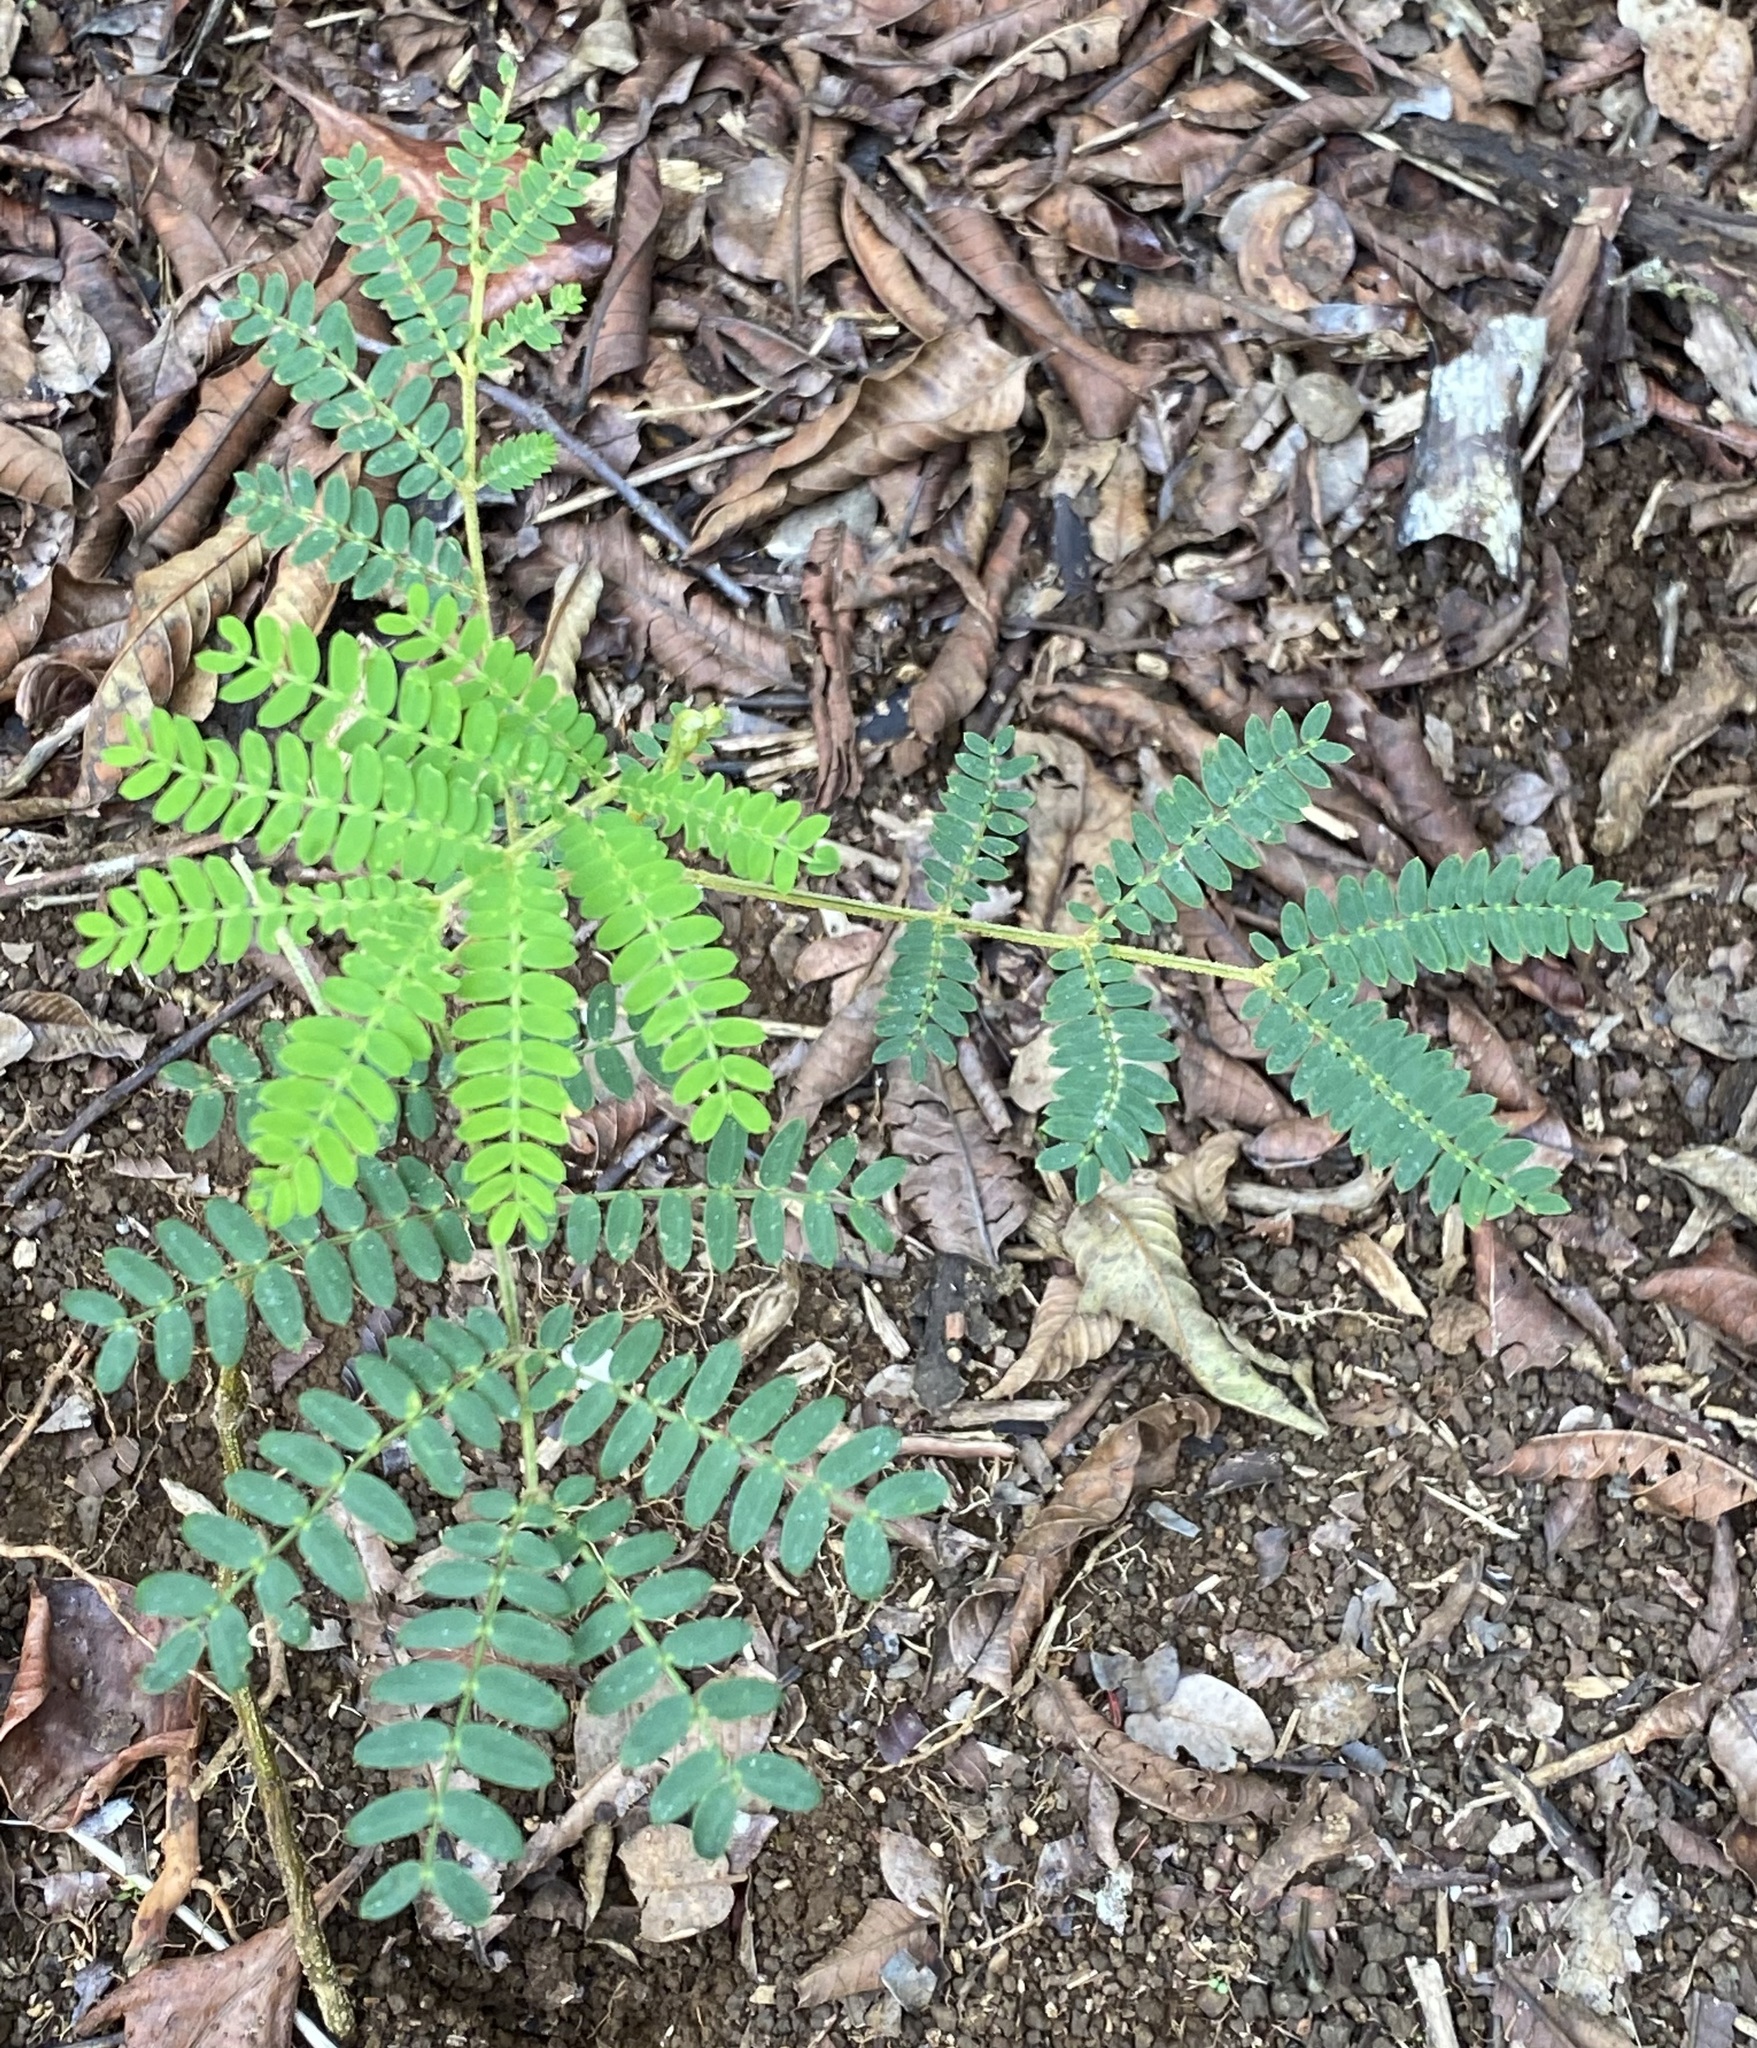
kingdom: Plantae
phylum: Tracheophyta
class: Magnoliopsida
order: Fabales
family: Fabaceae
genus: Acacia
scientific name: Acacia koa
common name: Gray koa
